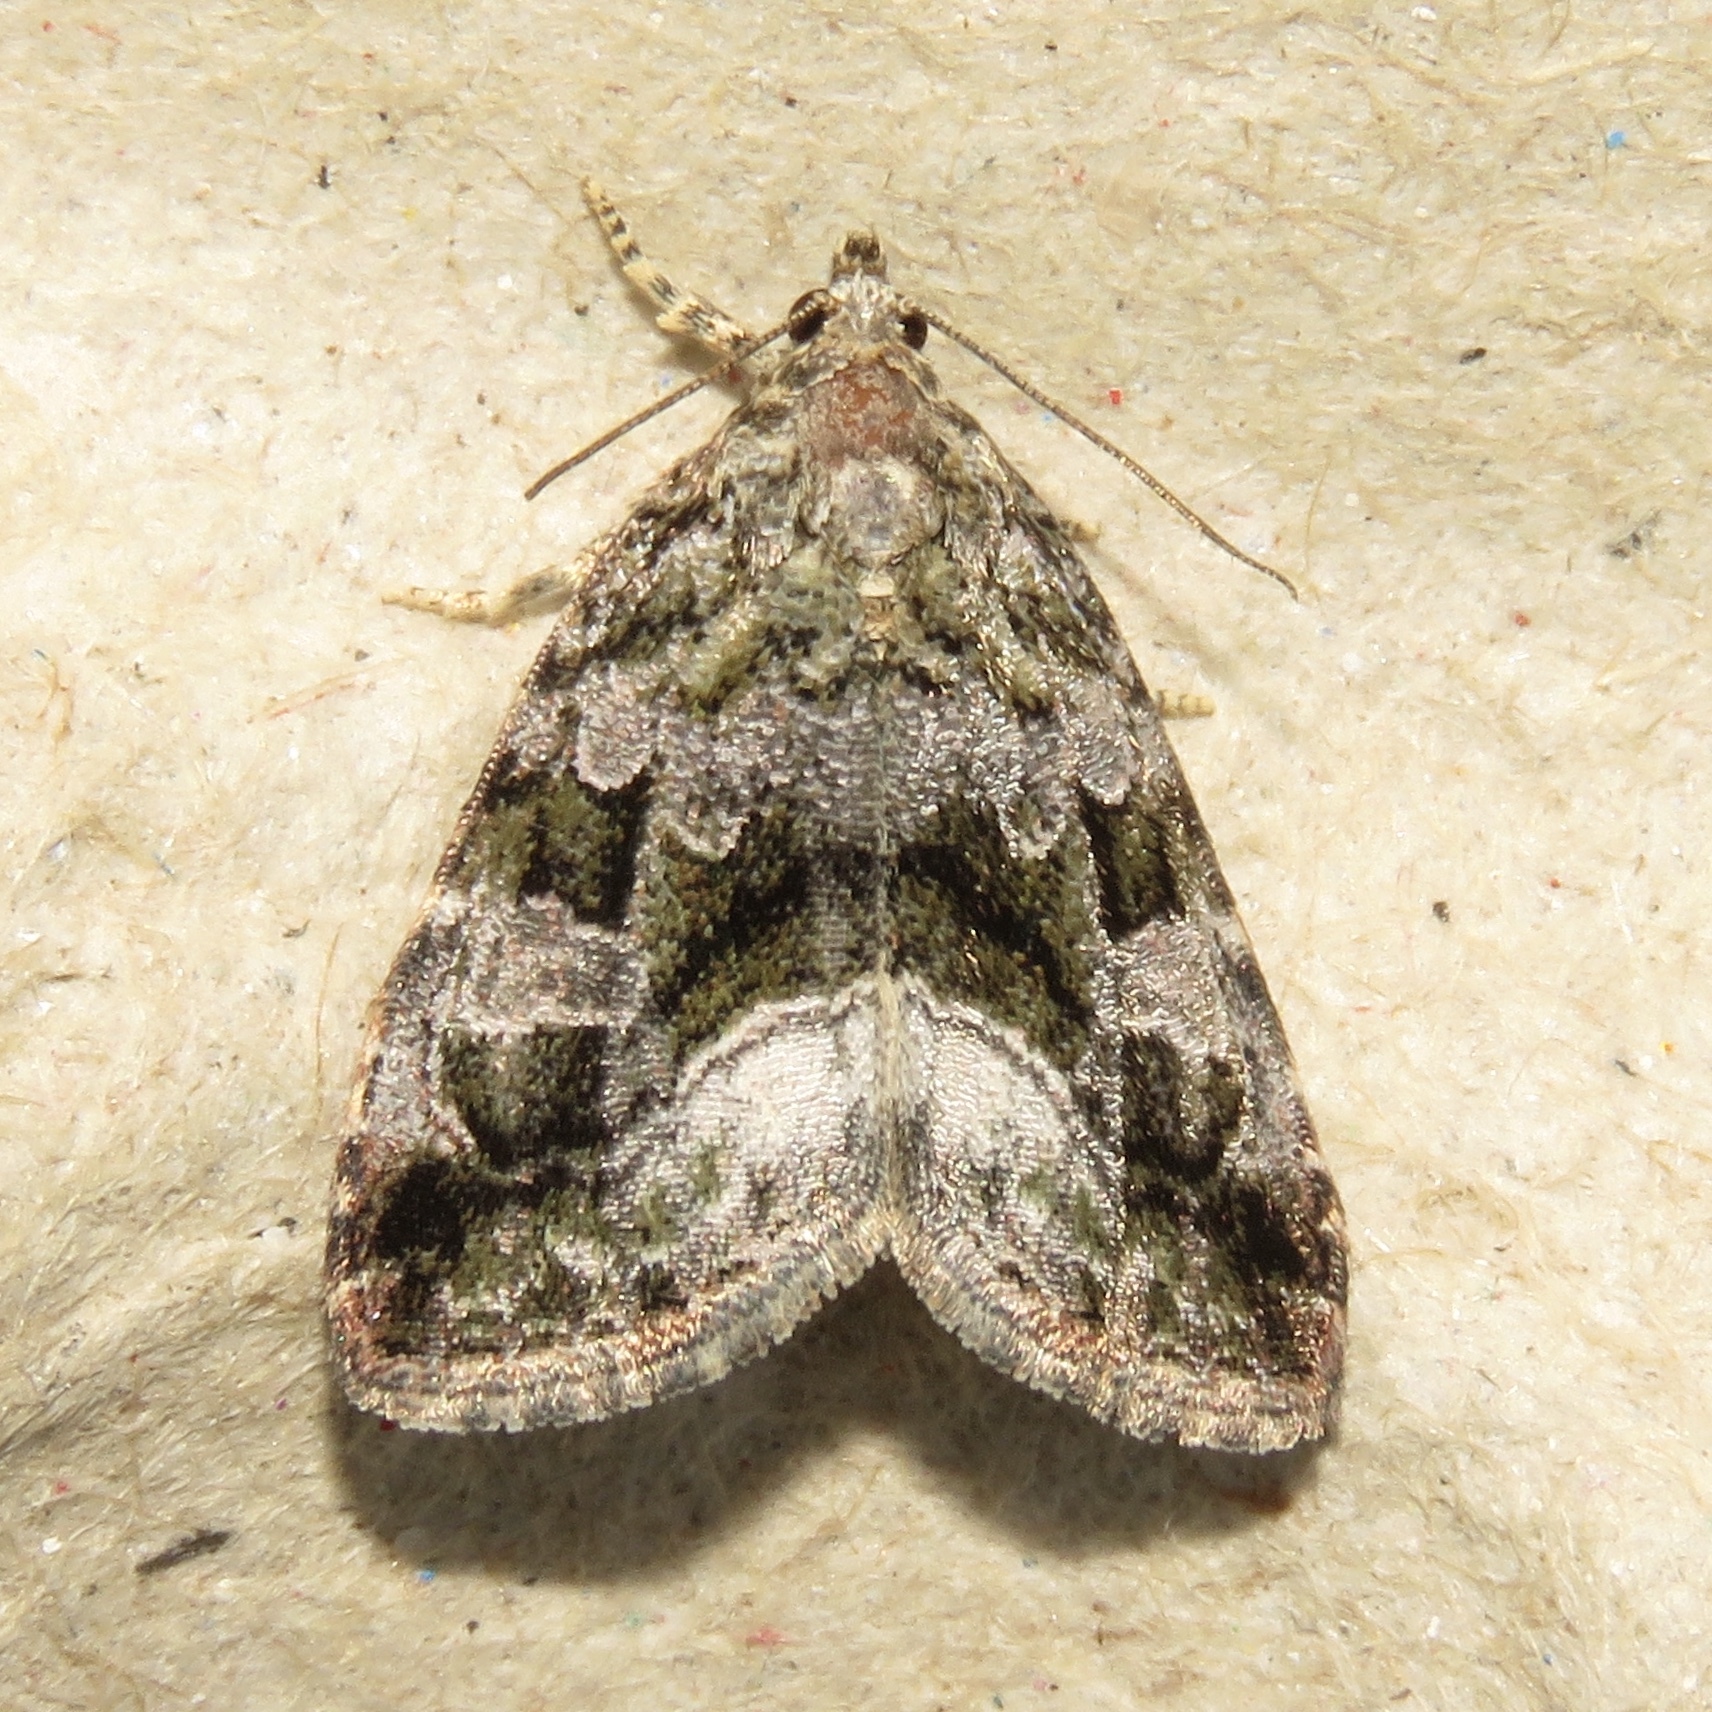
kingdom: Animalia
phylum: Arthropoda
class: Insecta
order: Lepidoptera
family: Noctuidae
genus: Protodeltote
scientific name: Protodeltote muscosula
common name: Large mossy glyph
